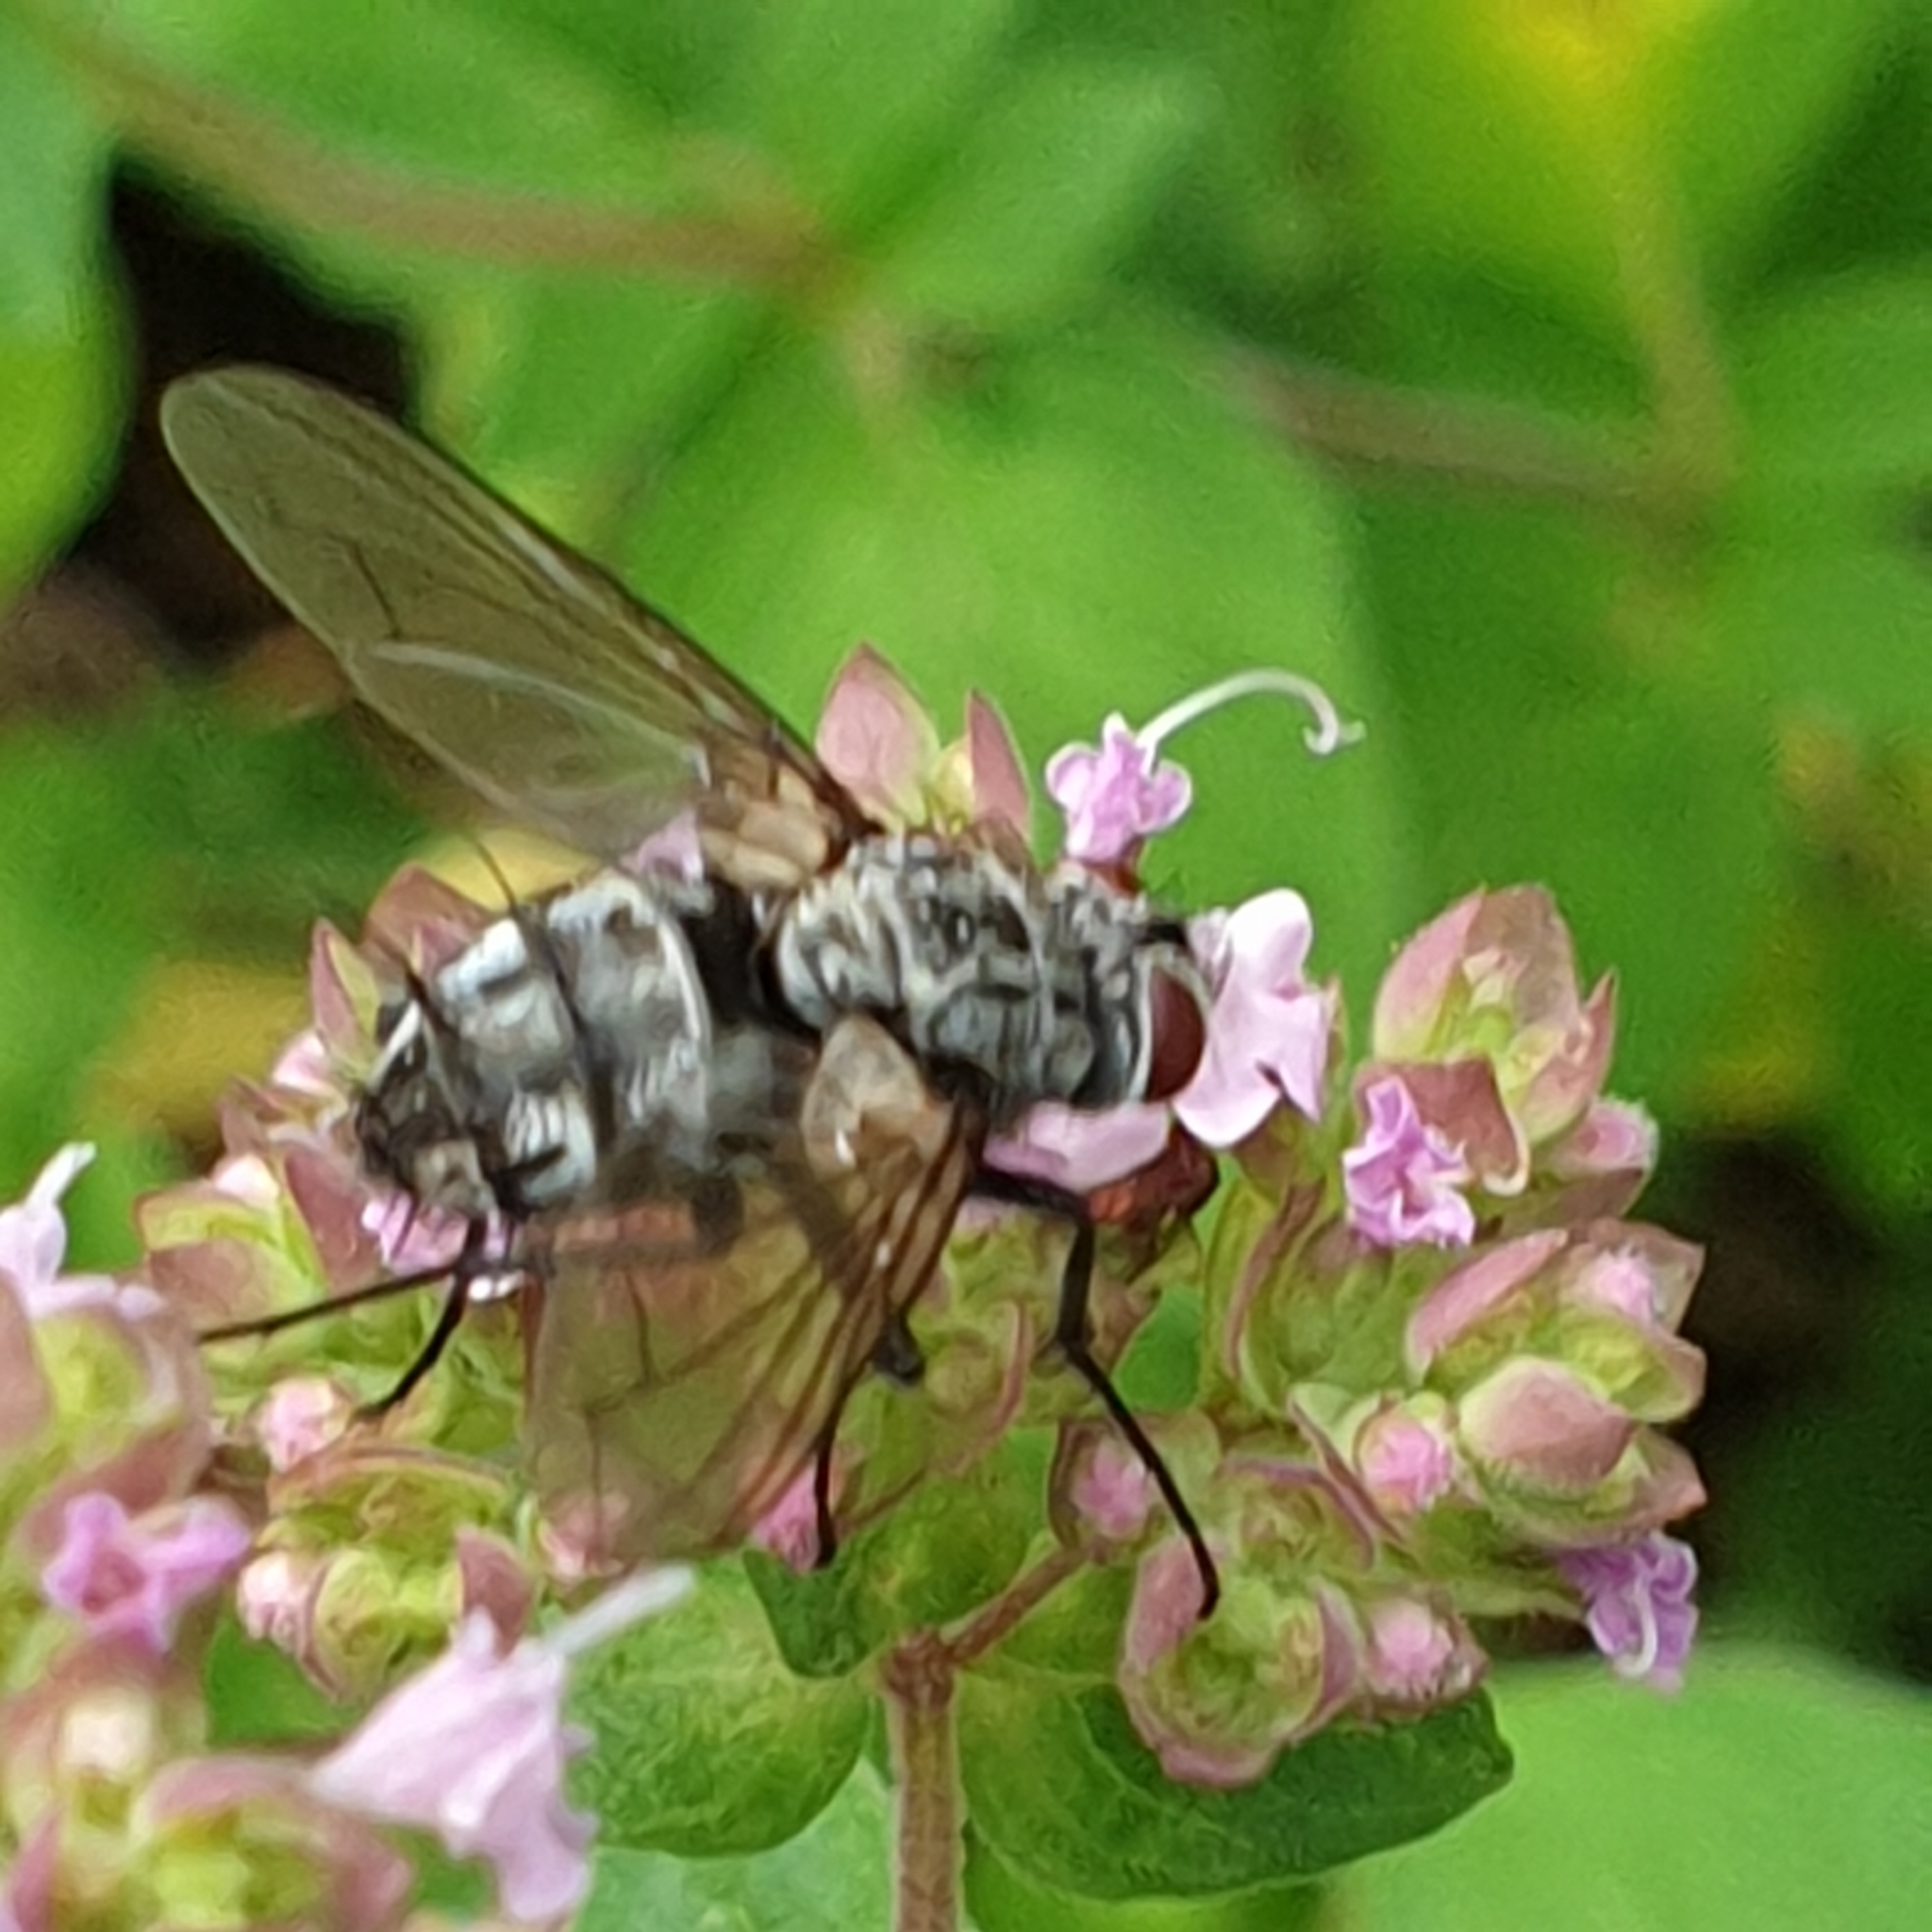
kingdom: Animalia
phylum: Arthropoda
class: Insecta
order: Diptera
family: Tachinidae
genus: Dinera
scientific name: Dinera ferina
